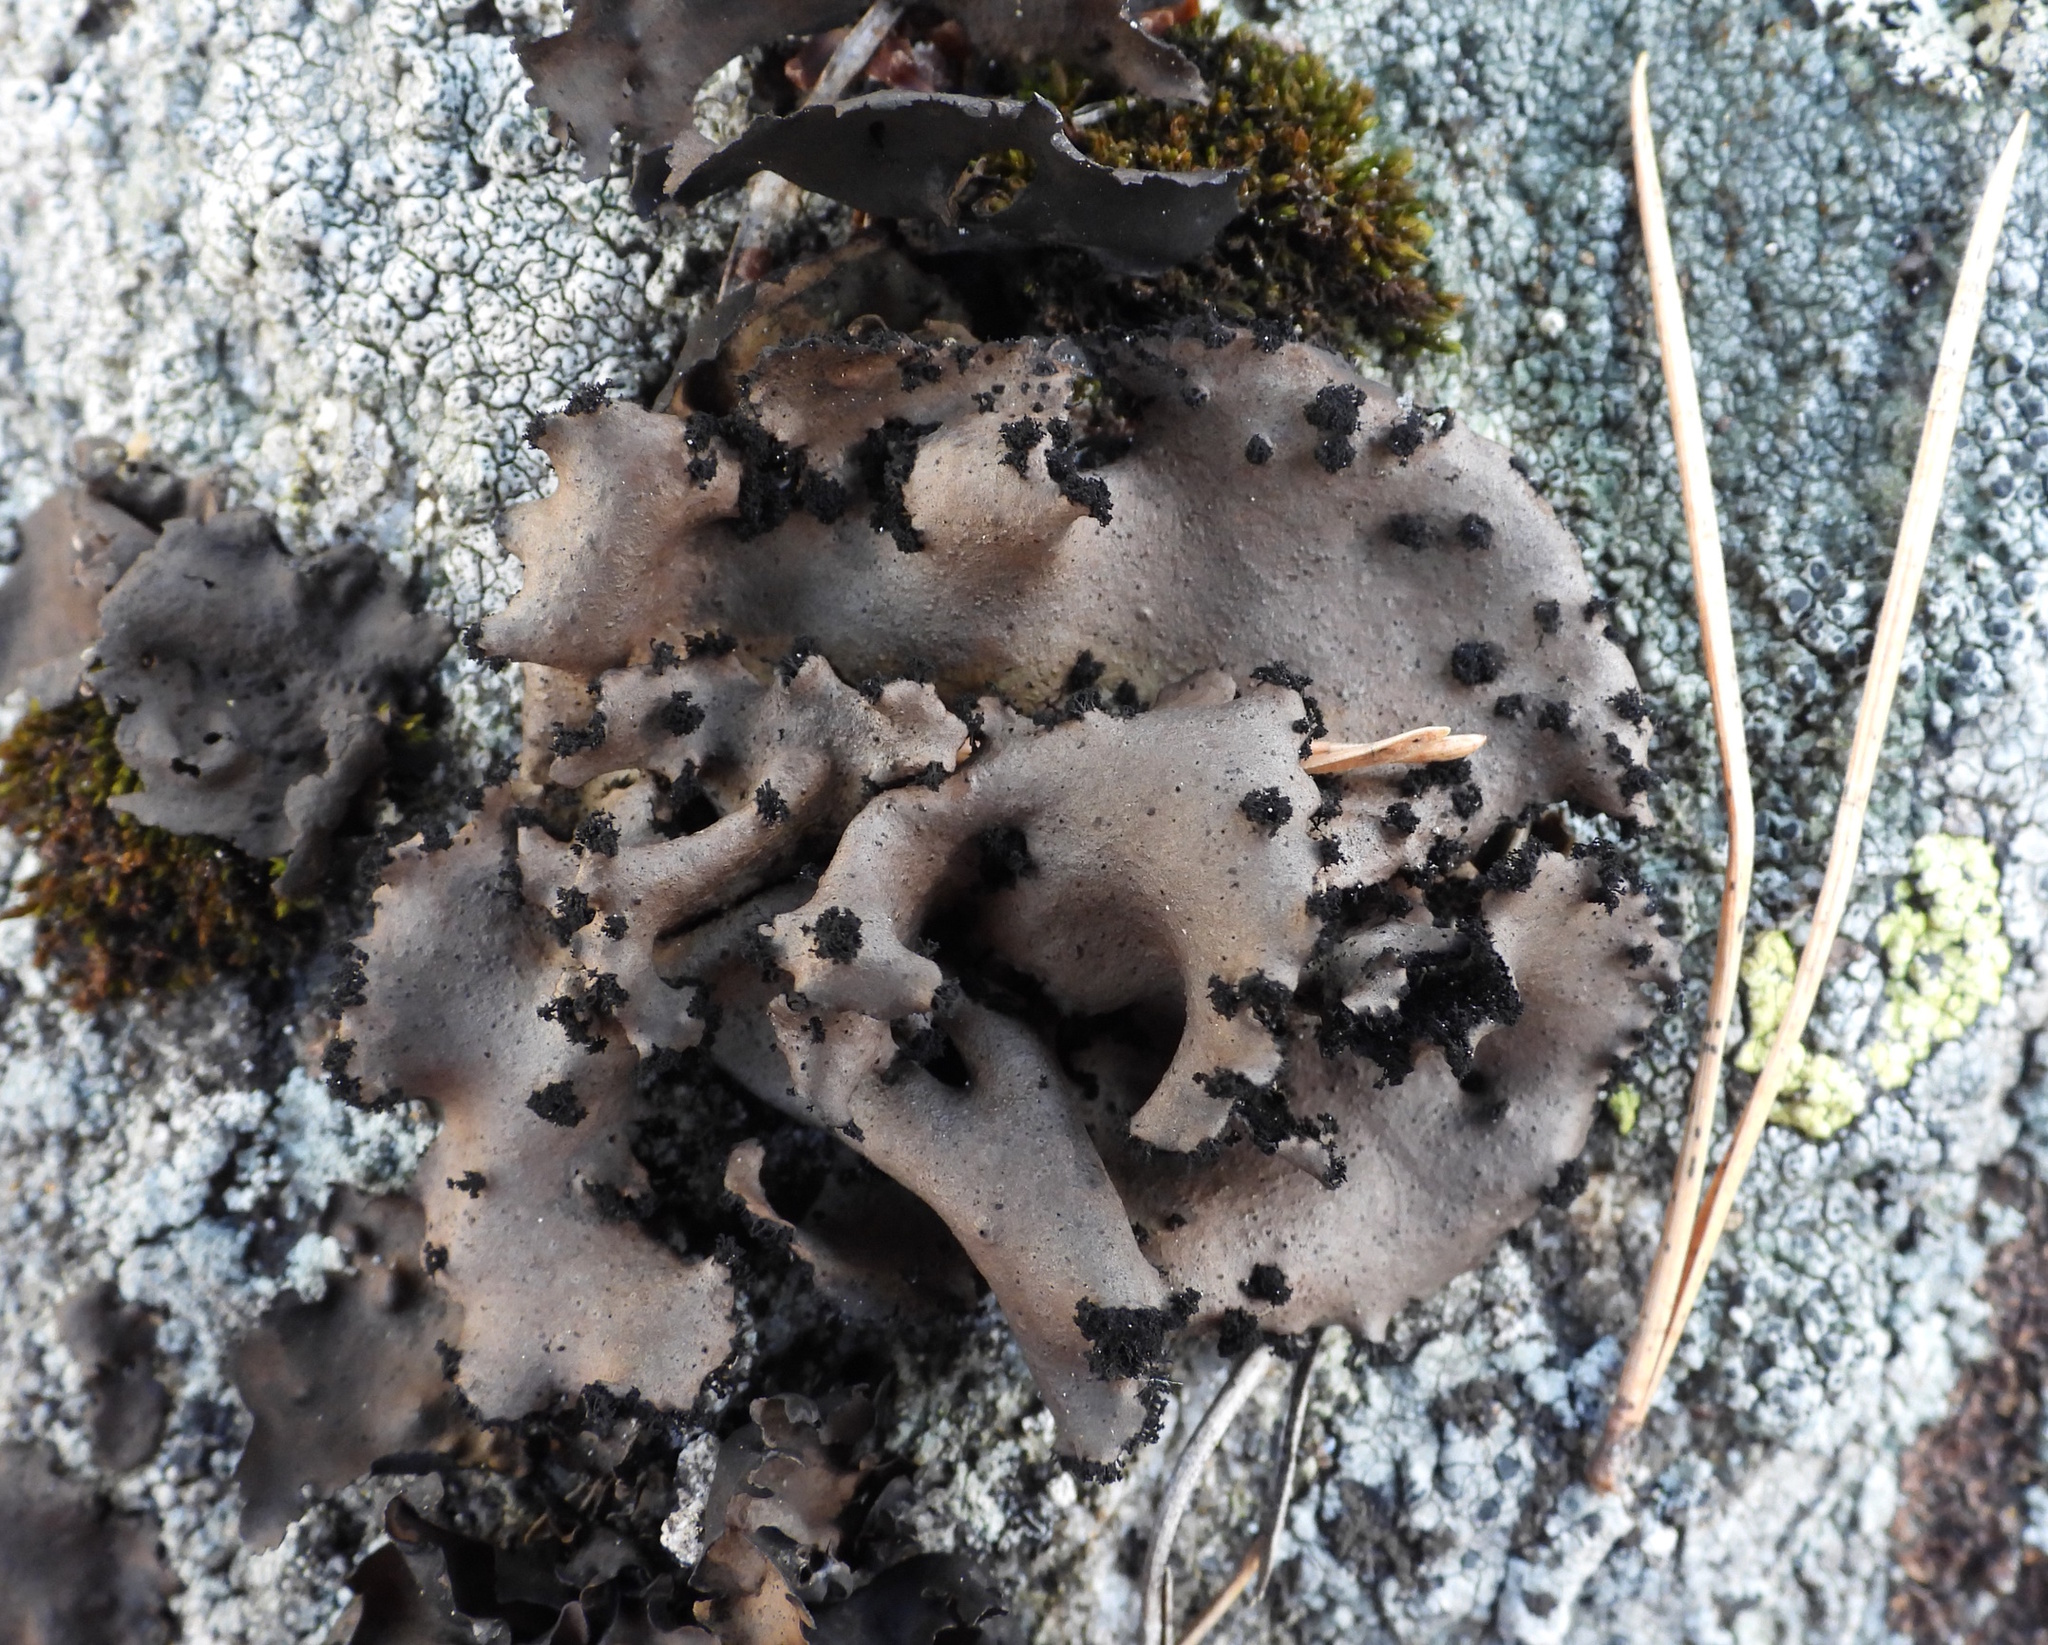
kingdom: Fungi
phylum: Ascomycota
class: Lecanoromycetes
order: Umbilicariales
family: Umbilicariaceae
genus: Umbilicaria
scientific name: Umbilicaria polyrrhiza
